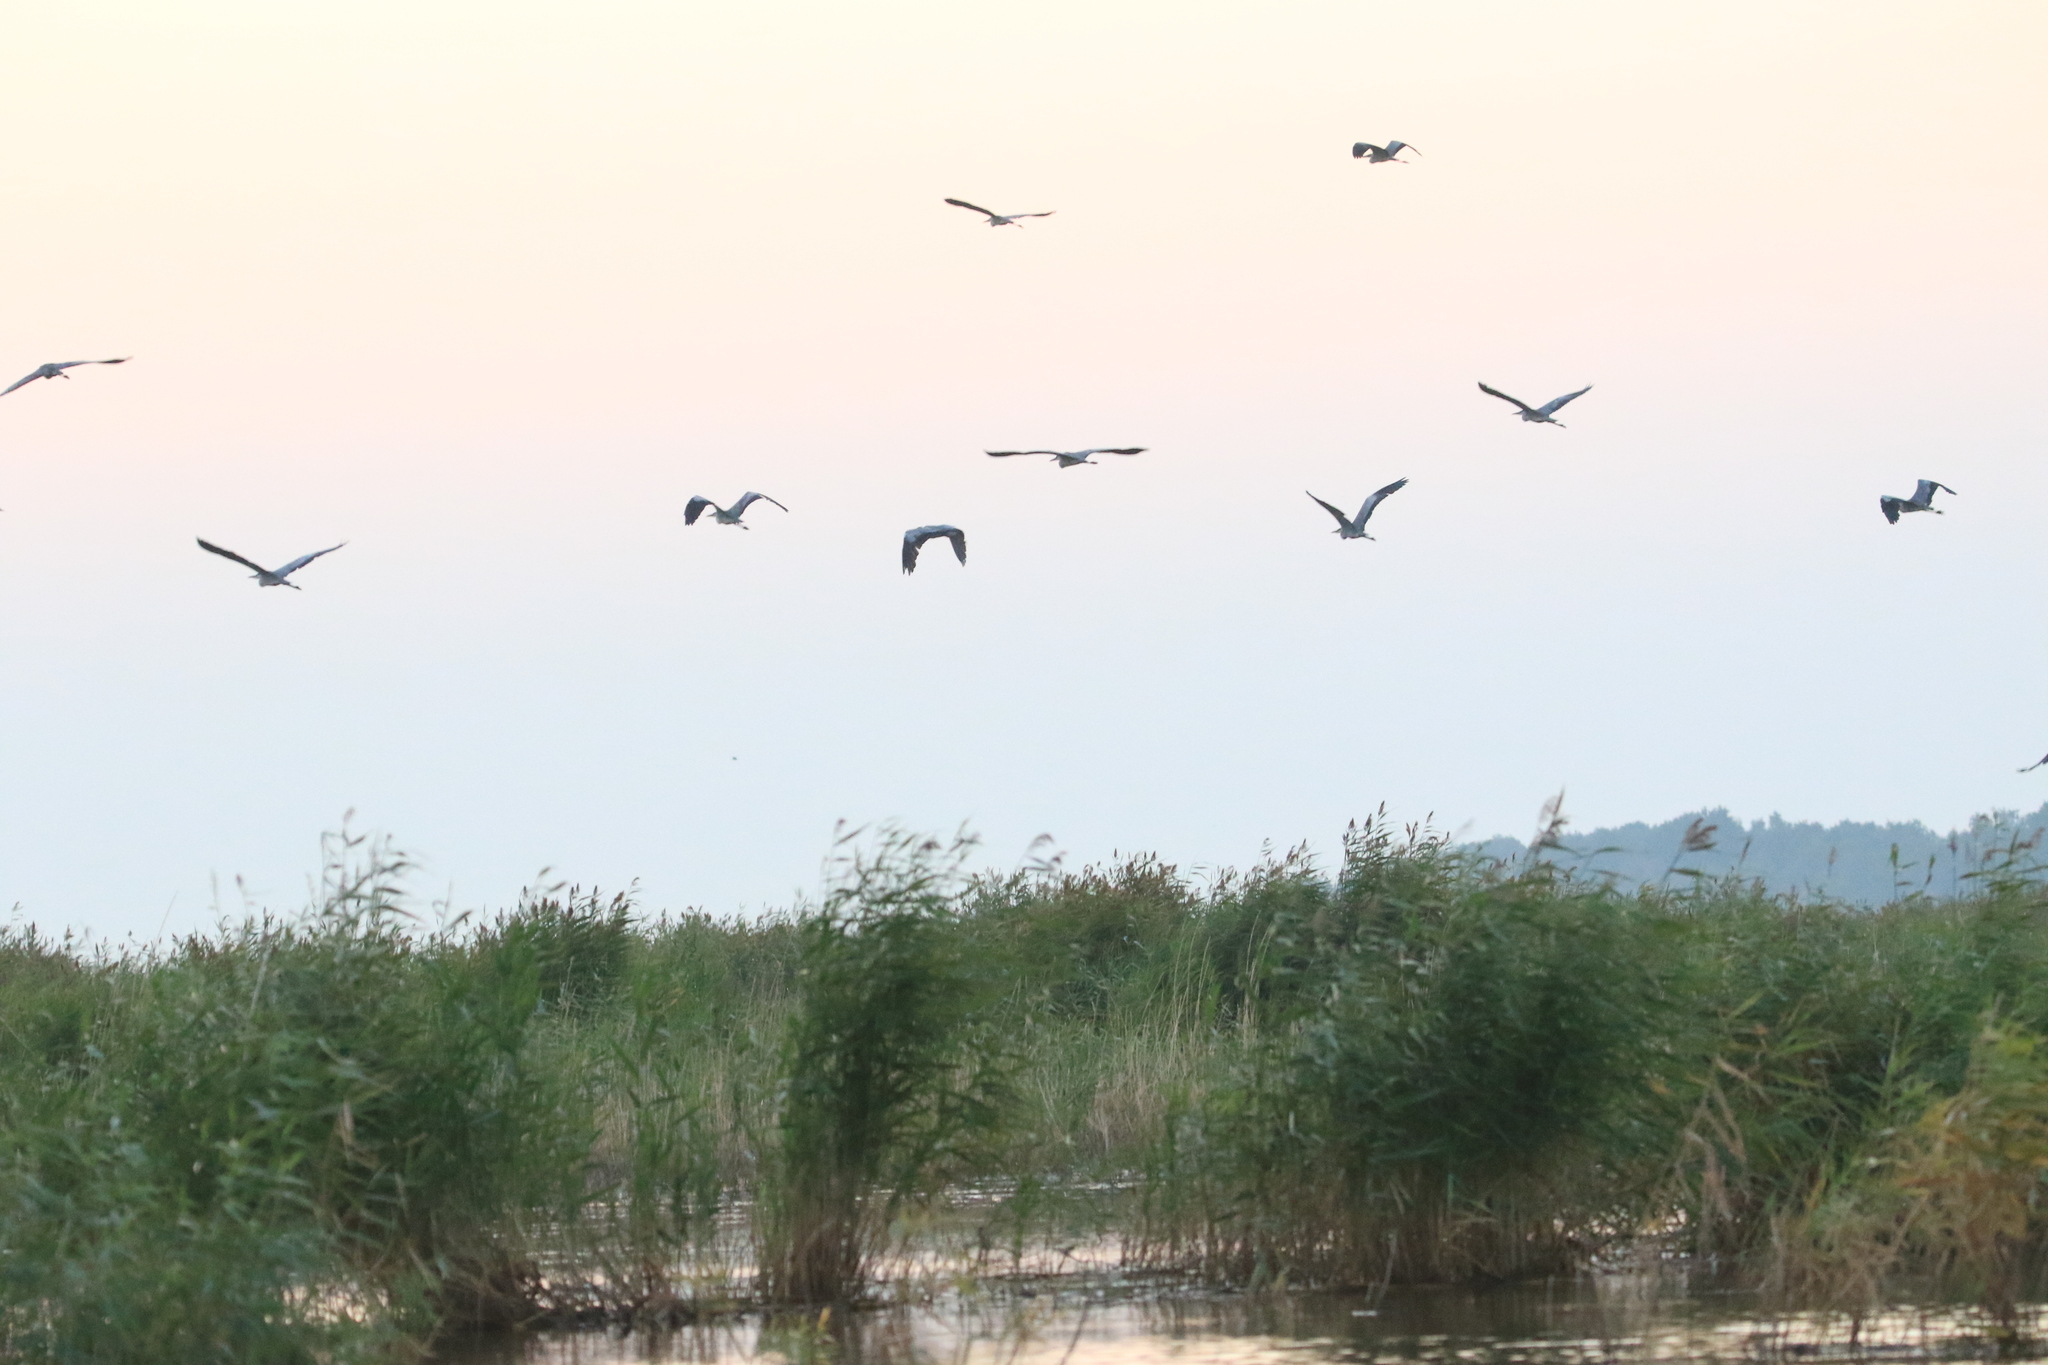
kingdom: Animalia
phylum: Chordata
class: Aves
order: Pelecaniformes
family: Ardeidae
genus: Ardea
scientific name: Ardea cinerea
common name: Grey heron
